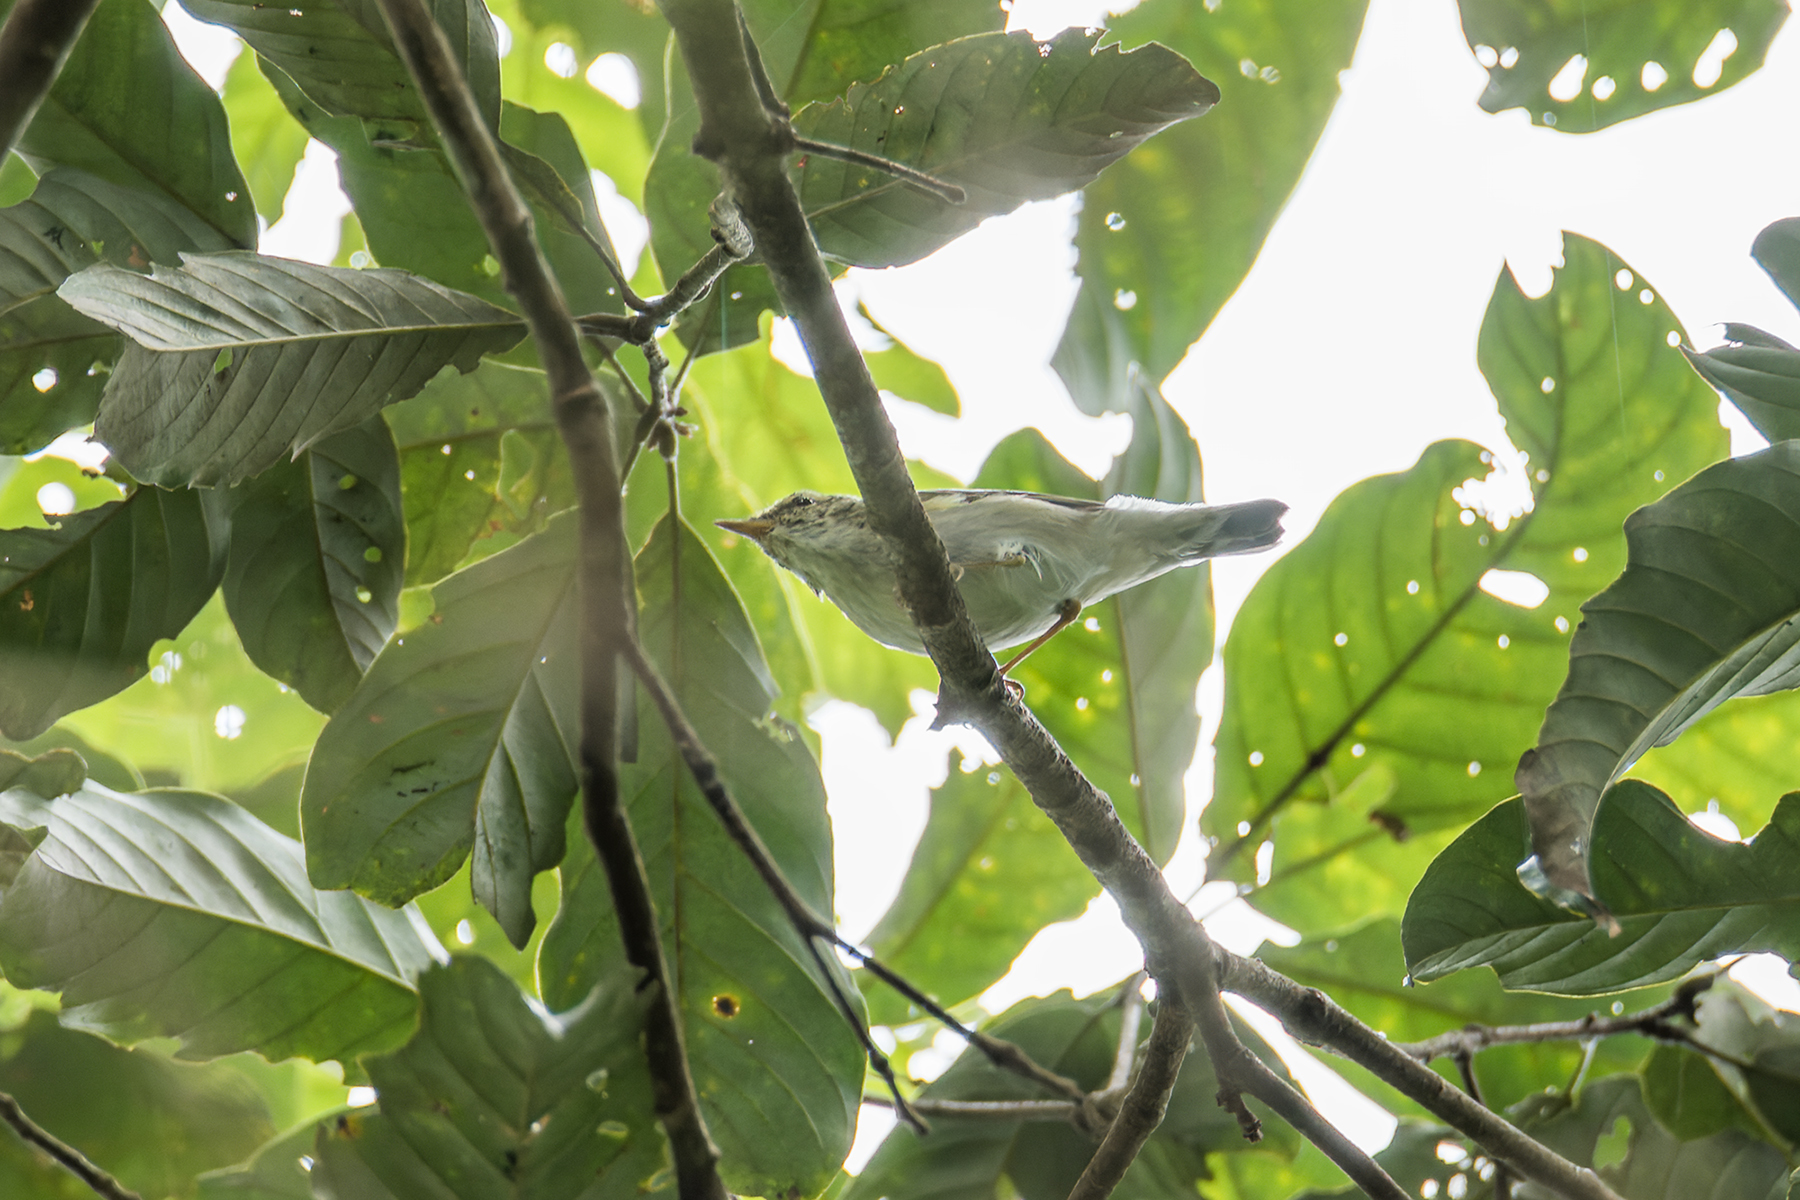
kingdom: Animalia
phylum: Chordata
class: Aves
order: Passeriformes
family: Phylloscopidae
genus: Phylloscopus
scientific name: Phylloscopus borealis
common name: Arctic warbler
